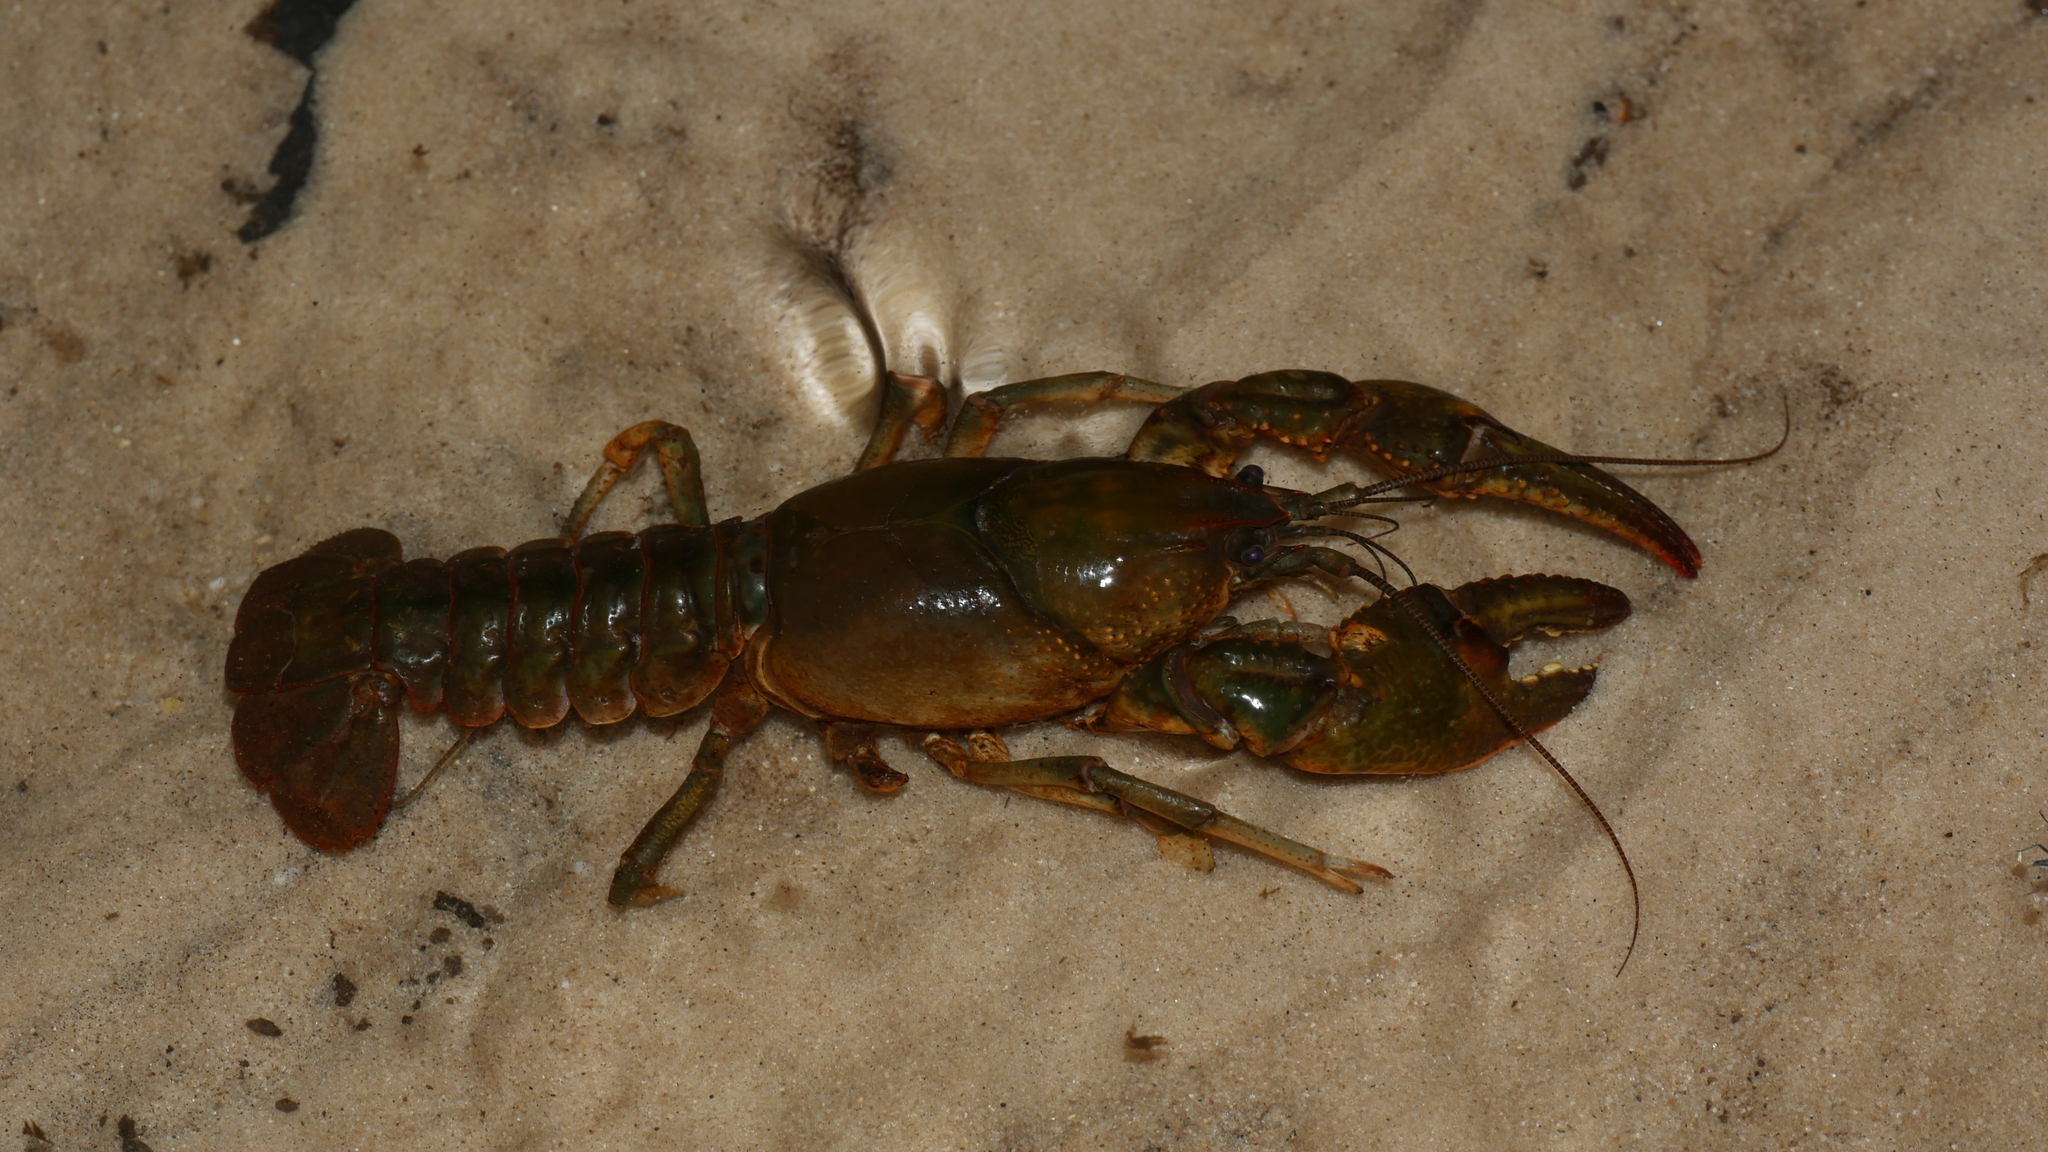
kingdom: Animalia
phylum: Arthropoda
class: Malacostraca
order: Decapoda
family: Cambaridae
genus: Lacunicambarus
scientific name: Lacunicambarus diogenes
